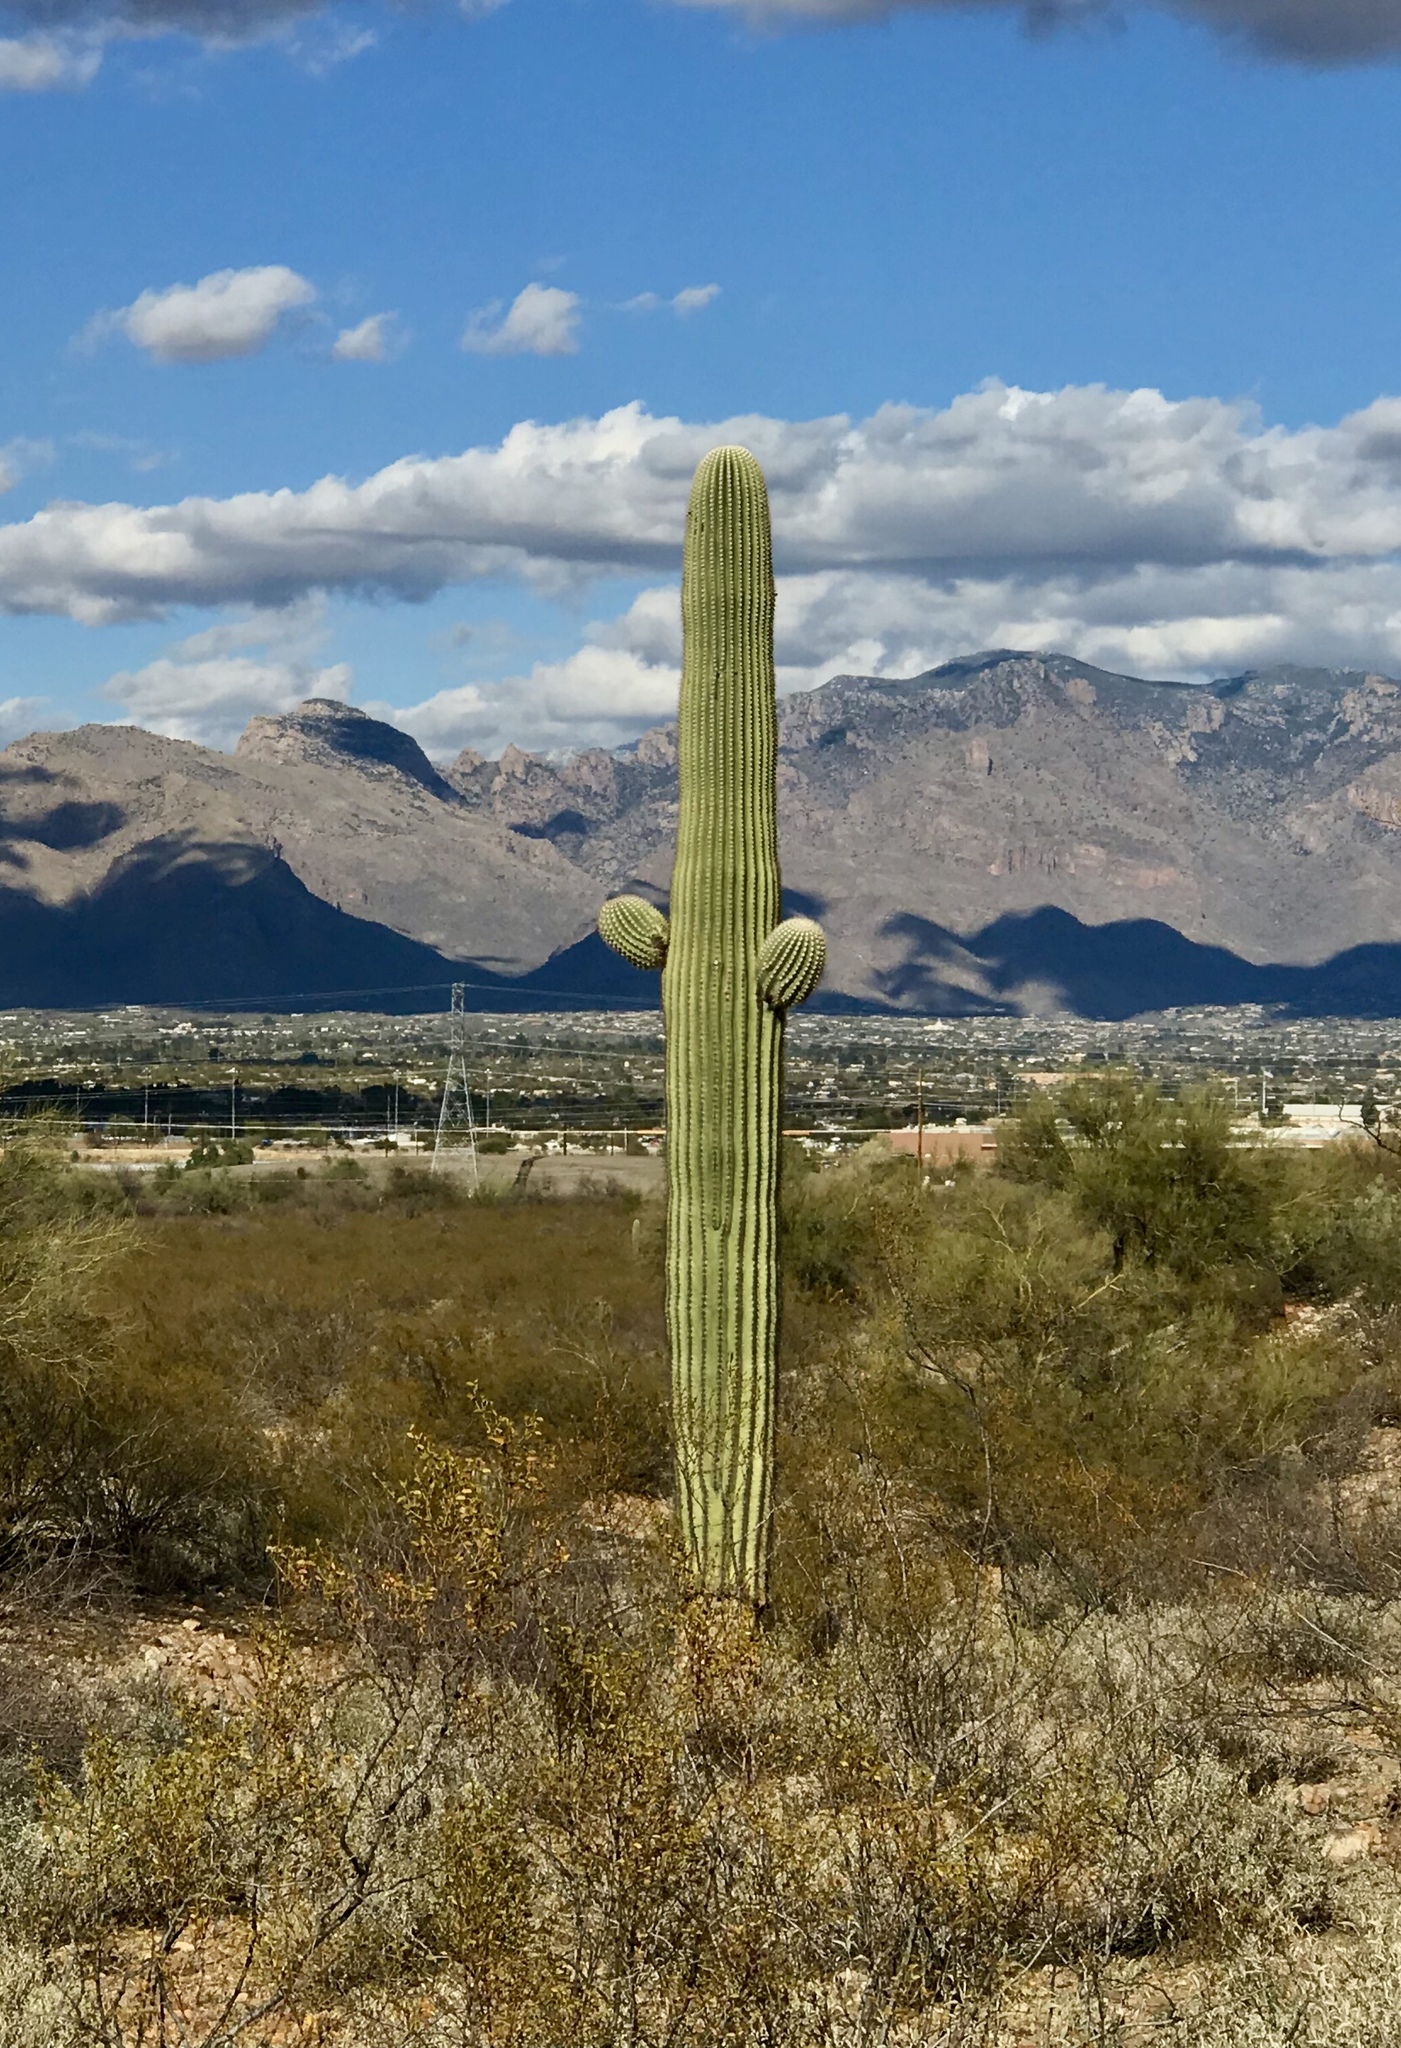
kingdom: Plantae
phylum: Tracheophyta
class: Magnoliopsida
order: Caryophyllales
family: Cactaceae
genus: Carnegiea
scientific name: Carnegiea gigantea
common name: Saguaro
